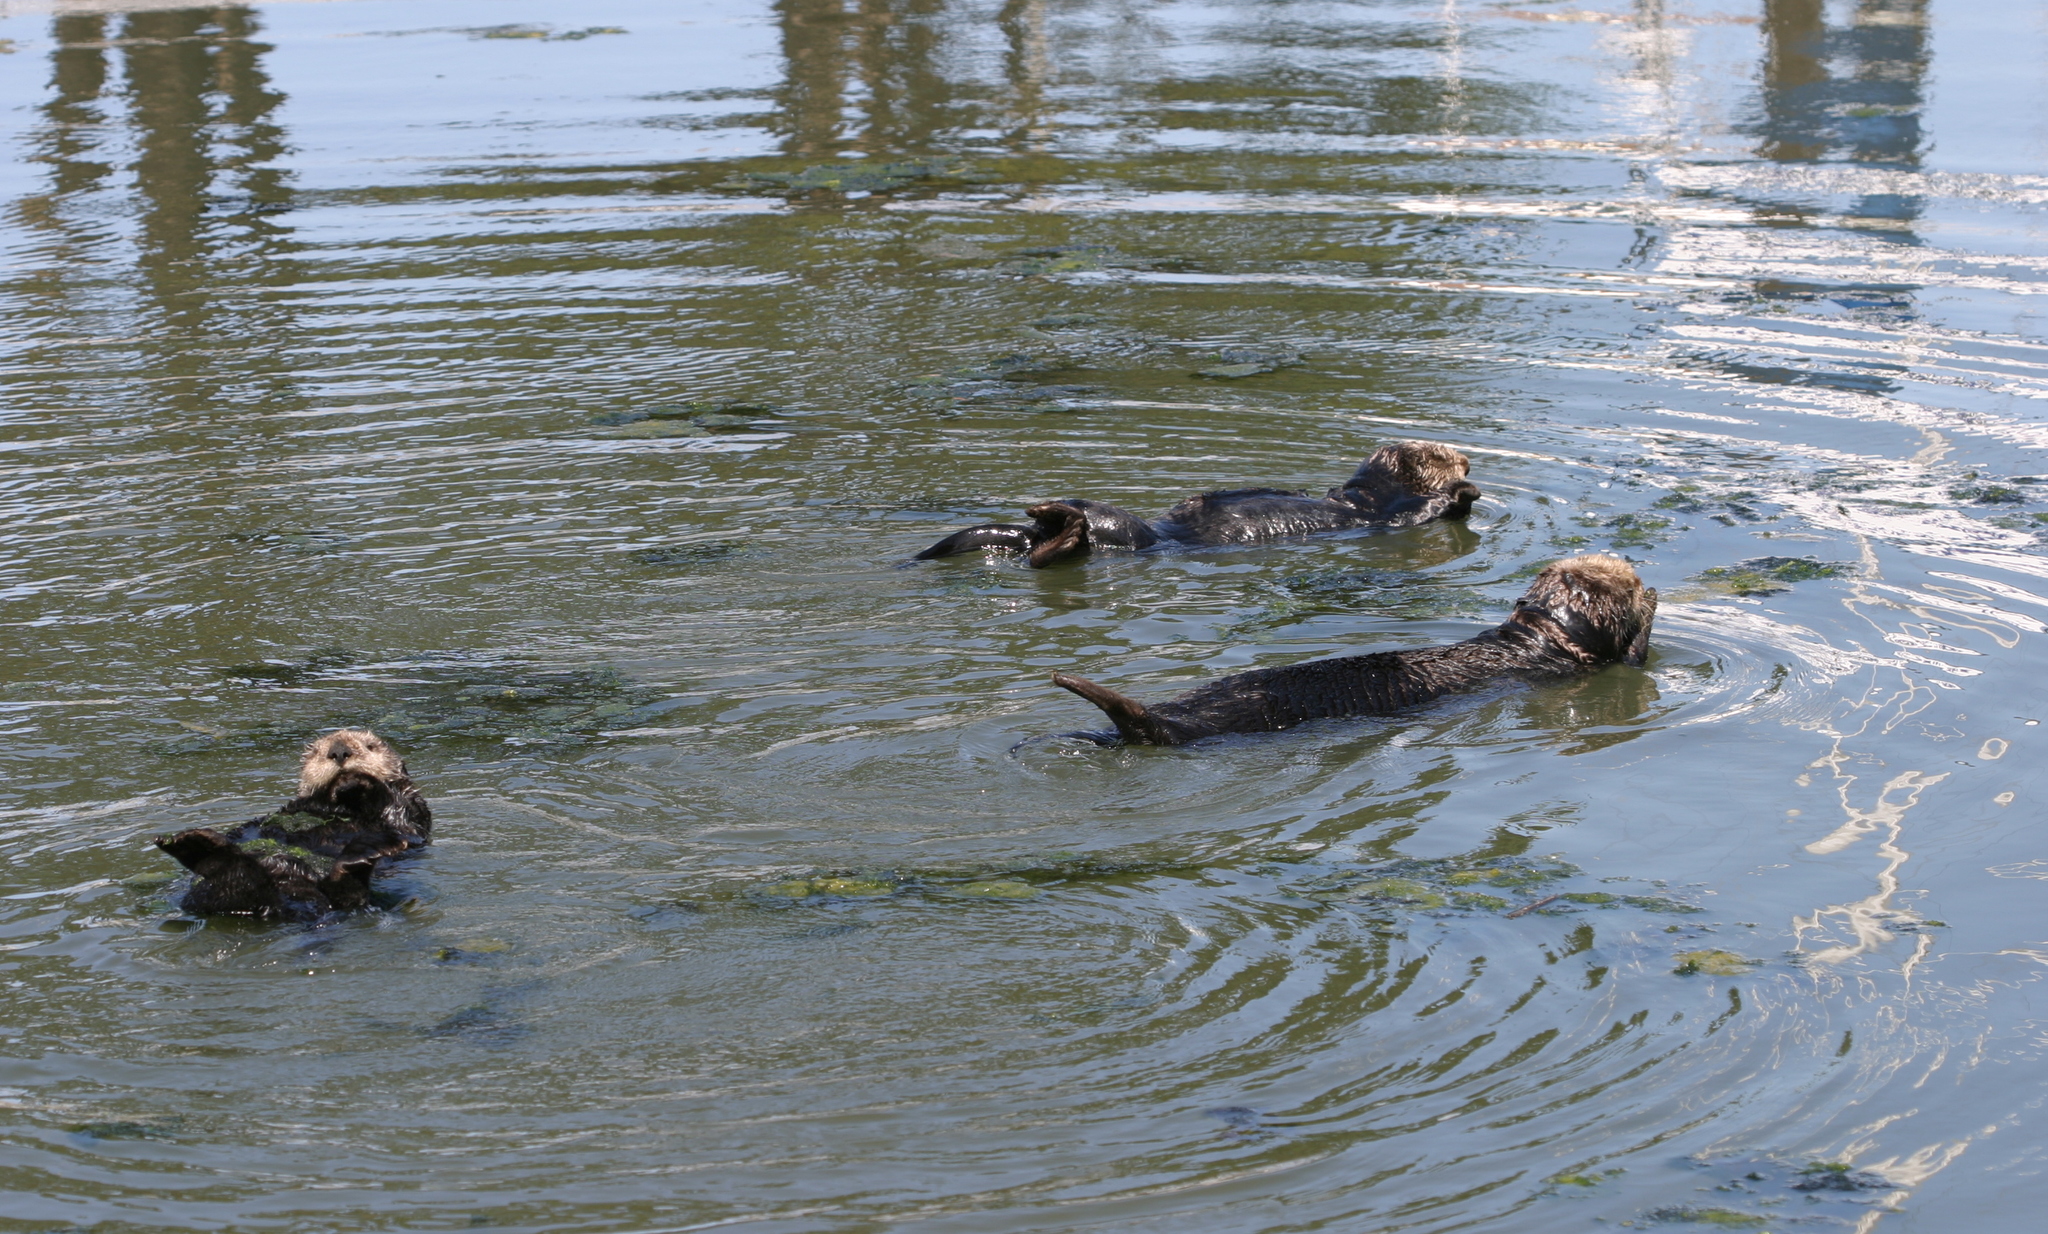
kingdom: Animalia
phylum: Chordata
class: Mammalia
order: Carnivora
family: Mustelidae
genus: Enhydra
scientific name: Enhydra lutris
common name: Sea otter
